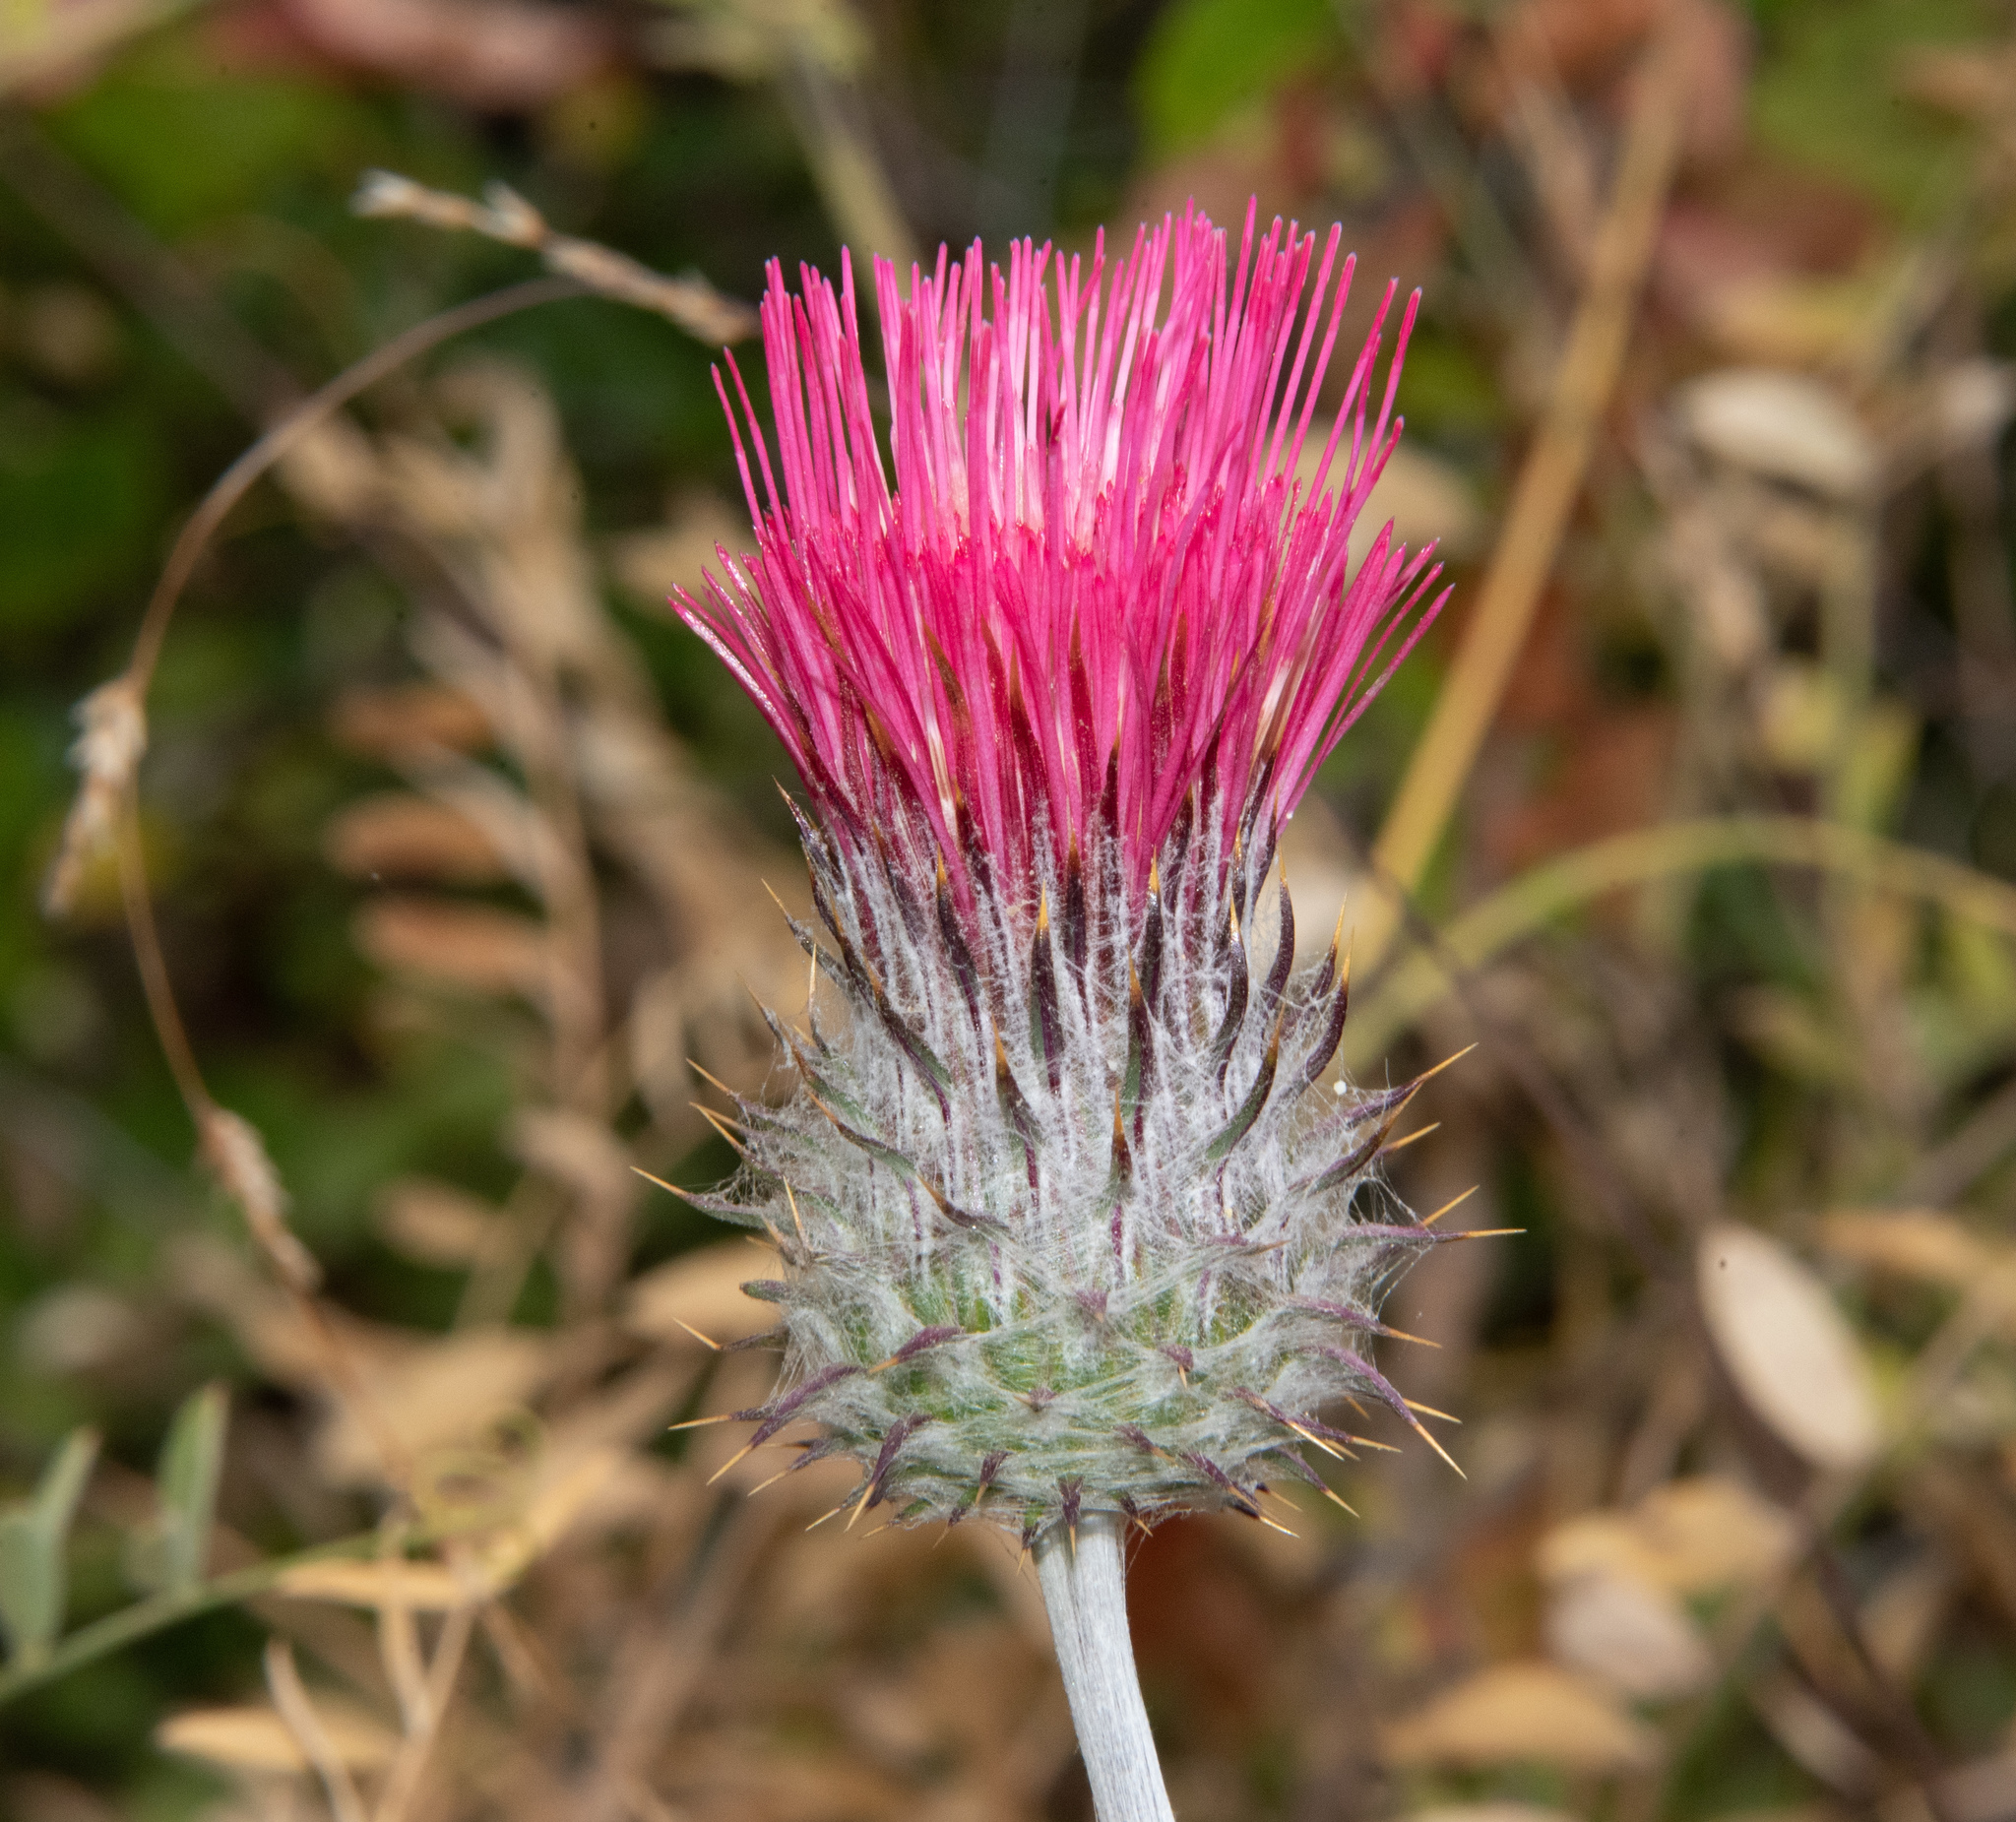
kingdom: Plantae
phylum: Tracheophyta
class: Magnoliopsida
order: Asterales
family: Asteraceae
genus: Cirsium
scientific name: Cirsium occidentale
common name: Western thistle
